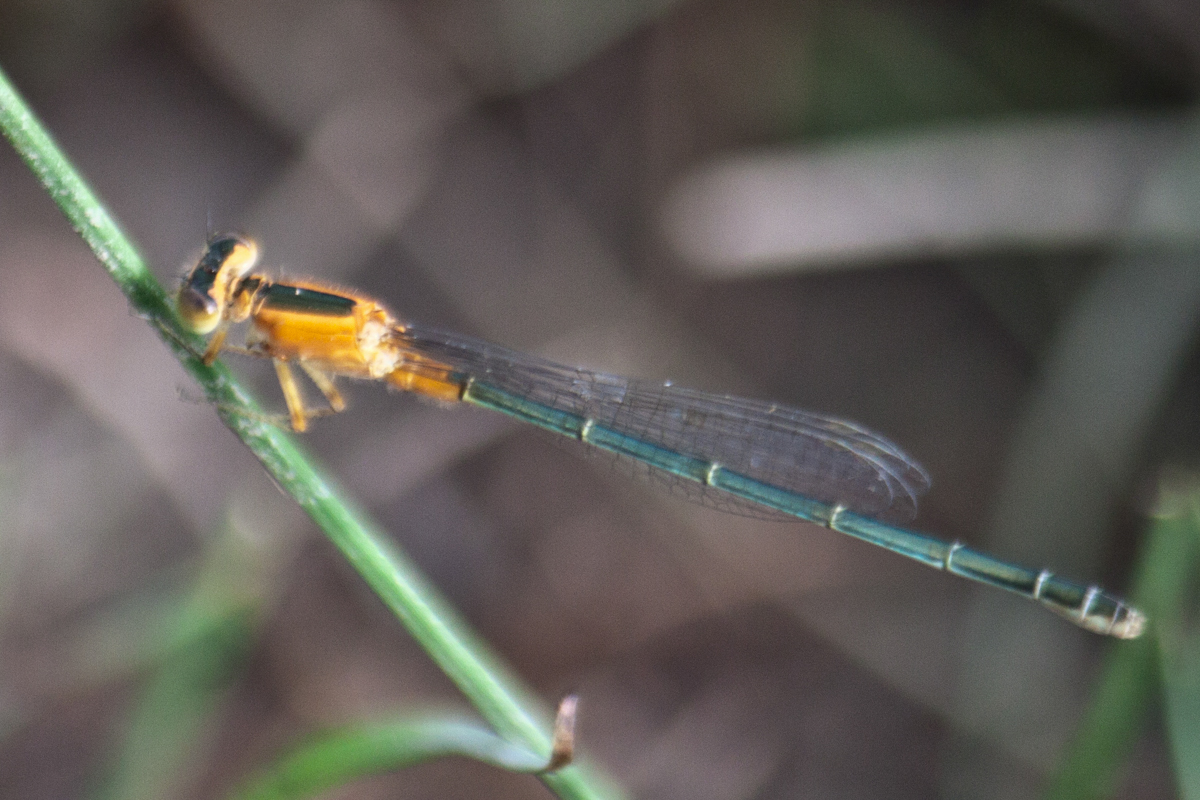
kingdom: Animalia
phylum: Arthropoda
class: Insecta
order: Odonata
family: Coenagrionidae
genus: Ischnura
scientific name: Ischnura senegalensis
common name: Tropical bluetail
